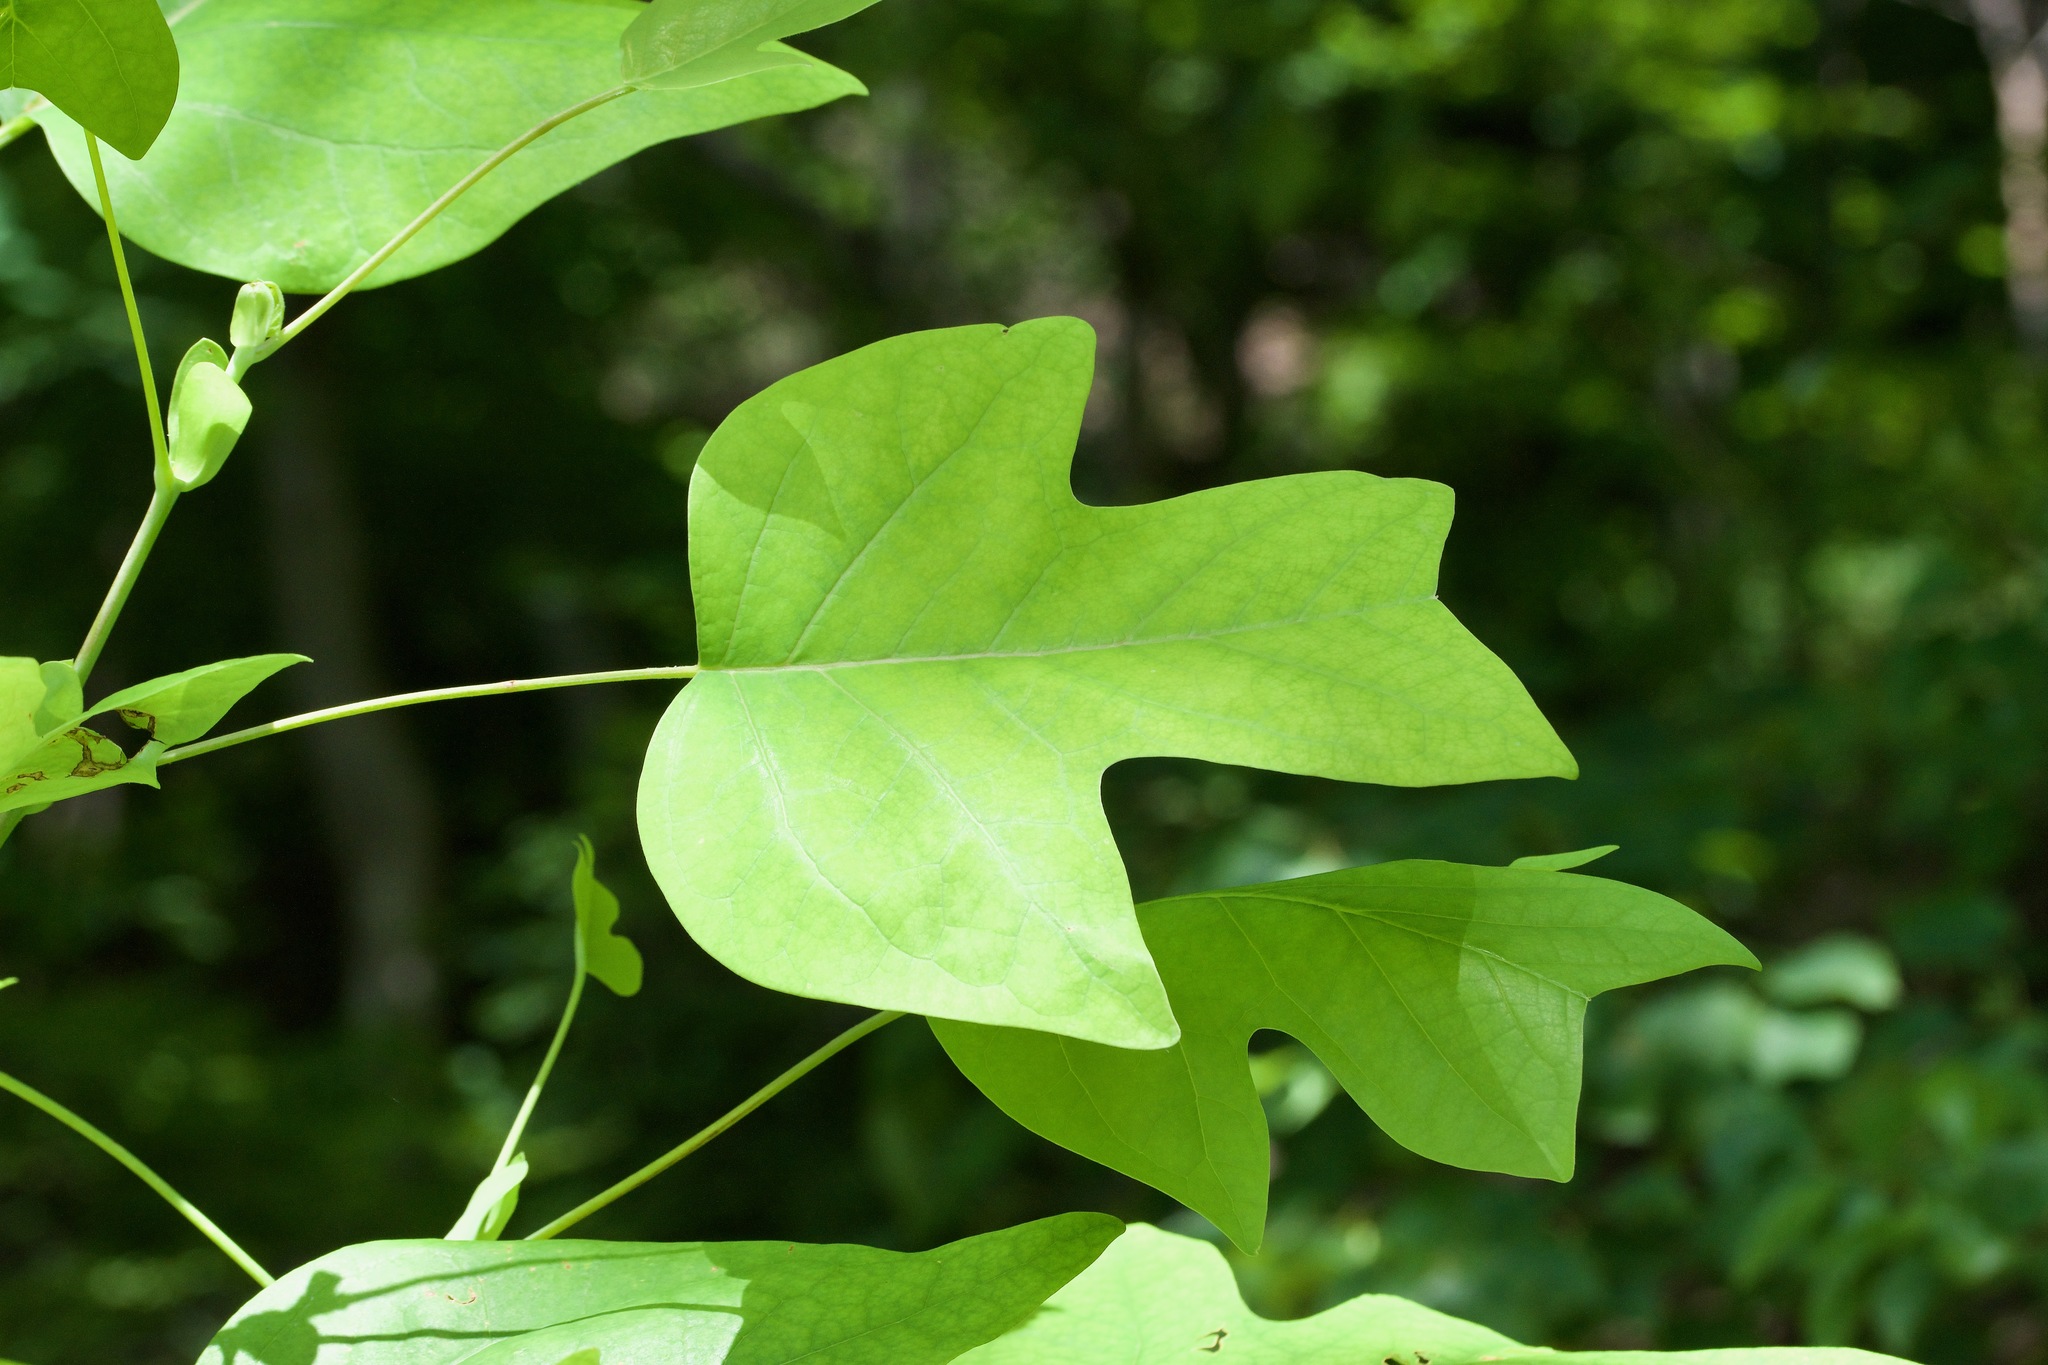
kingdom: Plantae
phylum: Tracheophyta
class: Magnoliopsida
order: Magnoliales
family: Magnoliaceae
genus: Liriodendron
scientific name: Liriodendron tulipifera
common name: Tulip tree
